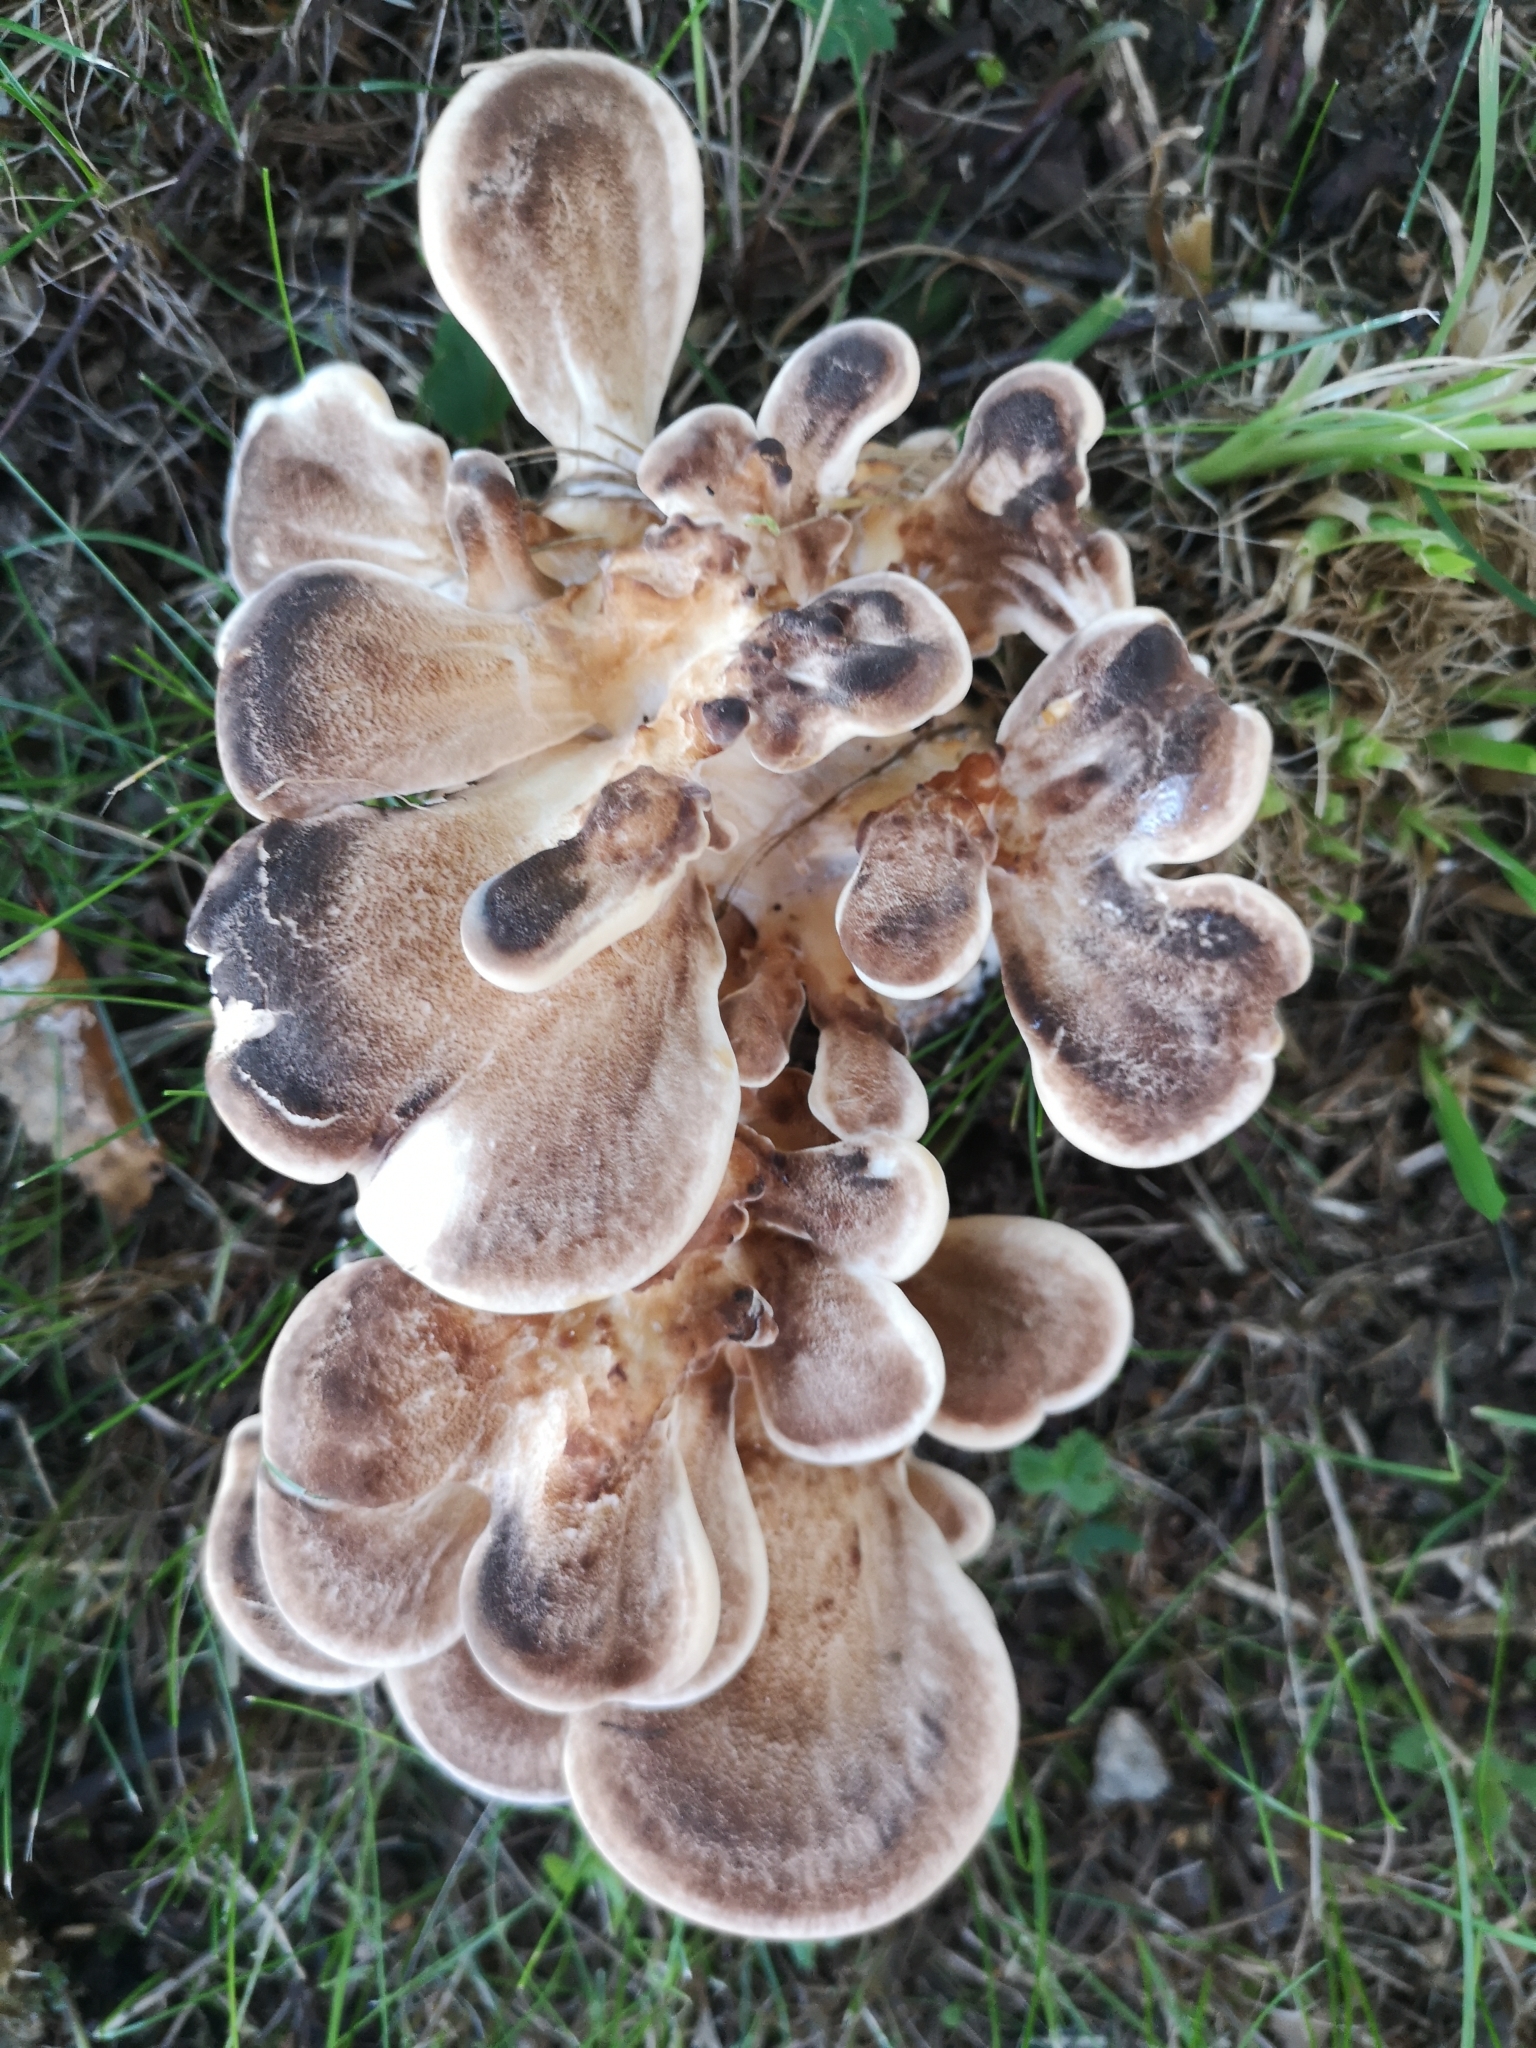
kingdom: Fungi
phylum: Basidiomycota
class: Agaricomycetes
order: Polyporales
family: Meripilaceae
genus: Meripilus
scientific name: Meripilus giganteus
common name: Giant polypore
